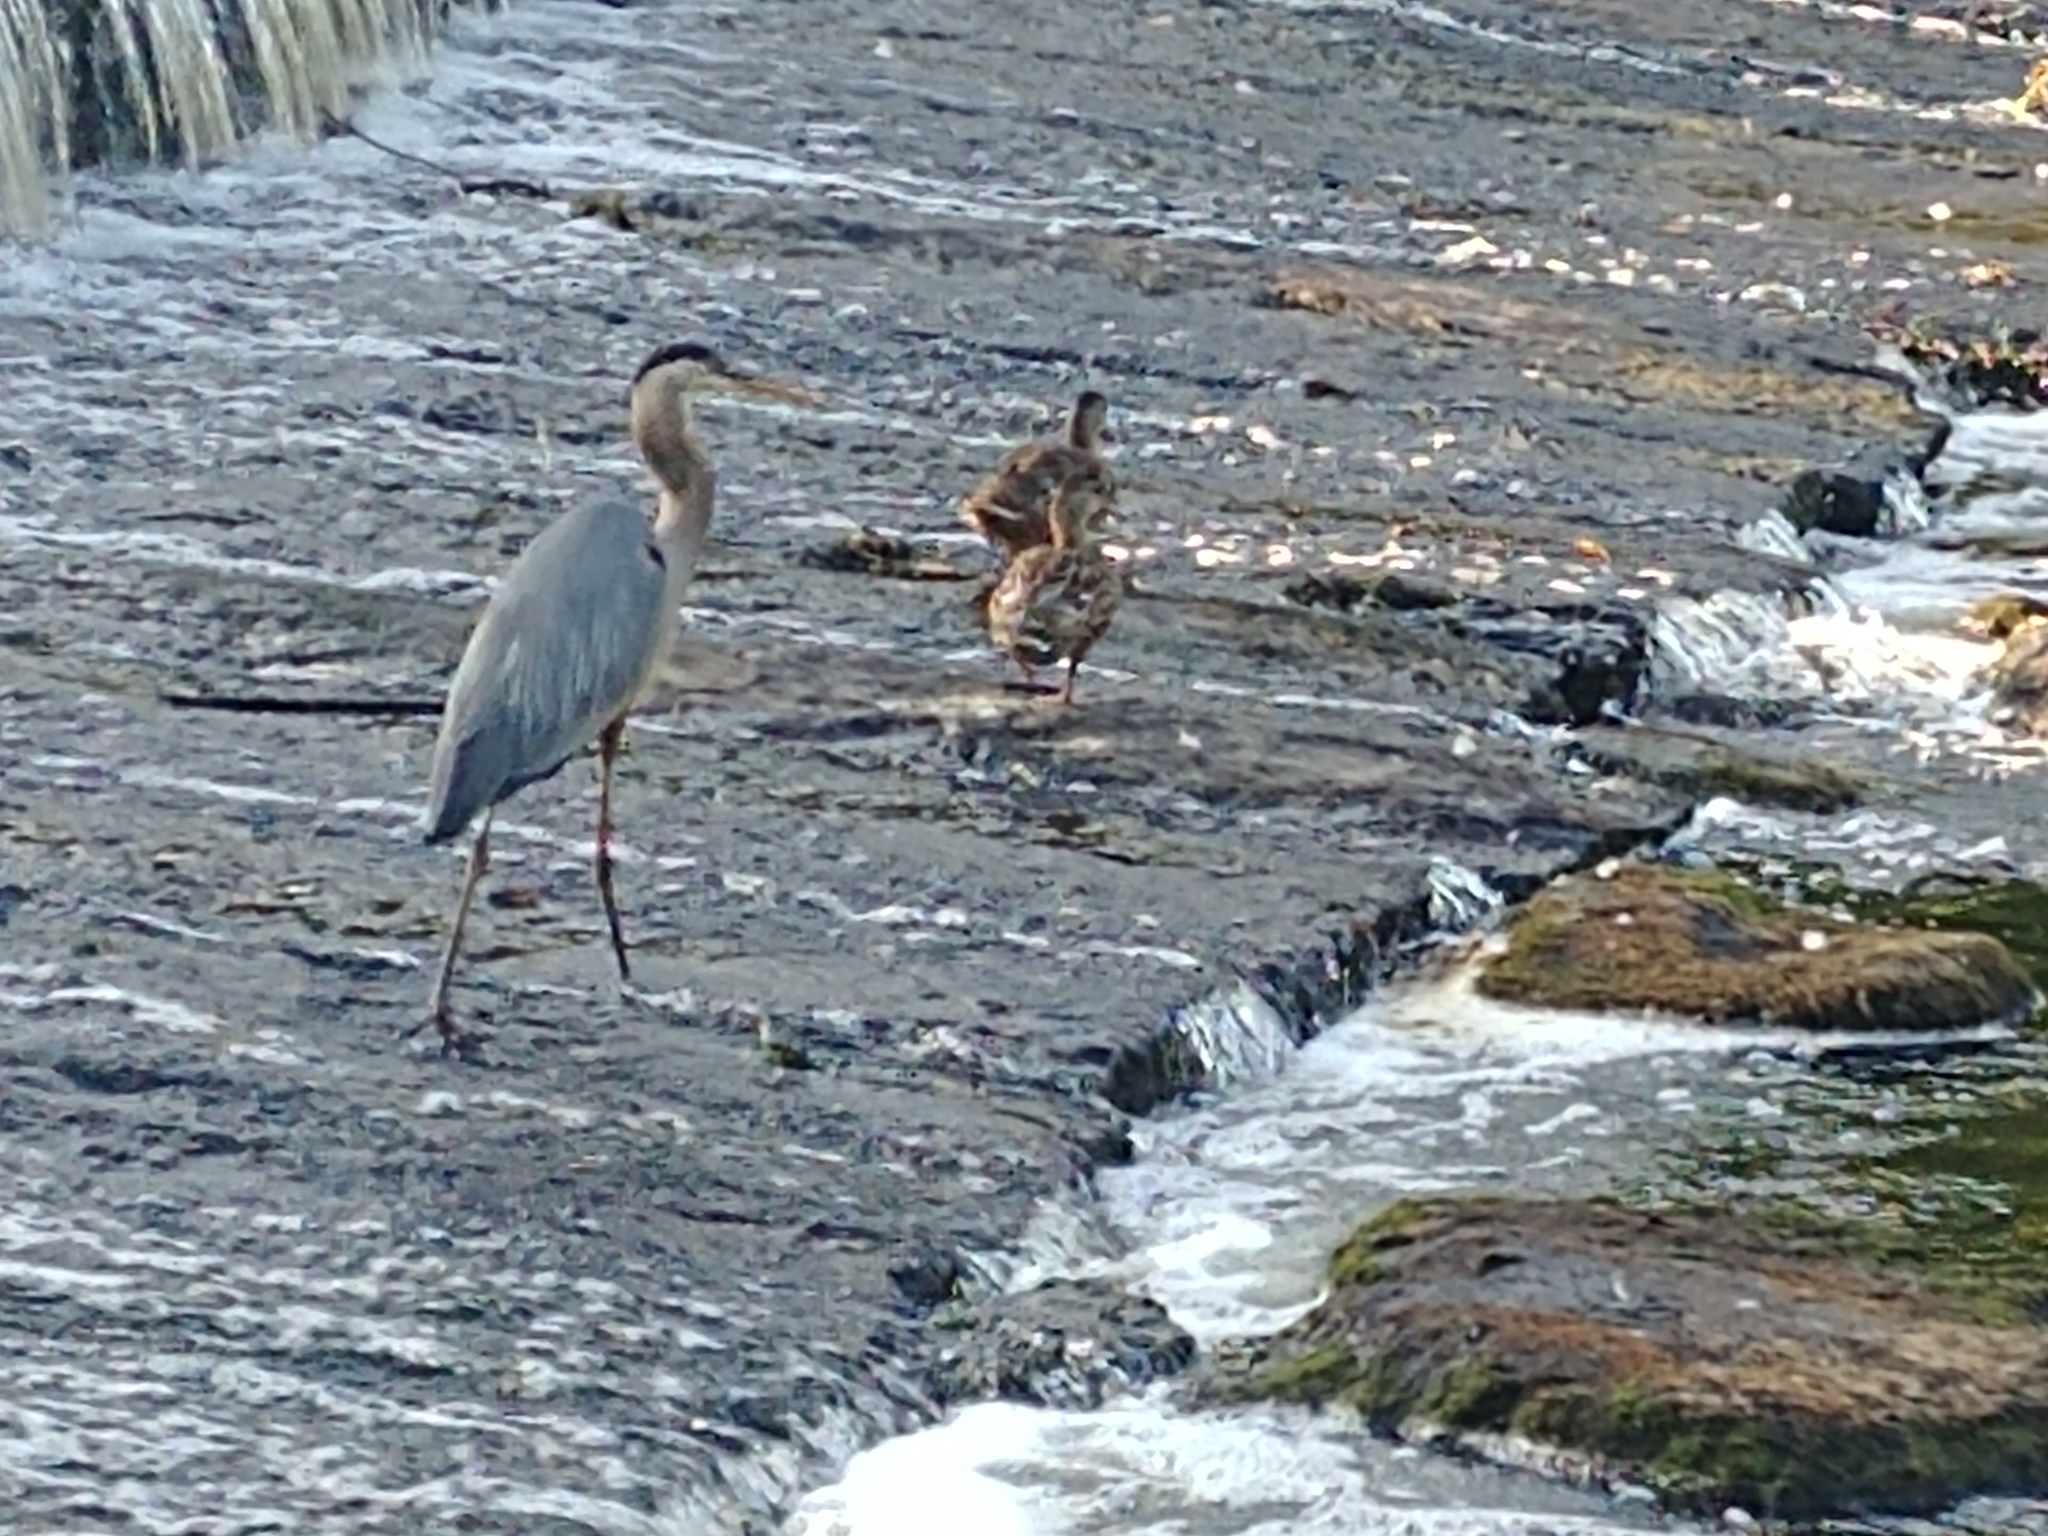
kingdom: Animalia
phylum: Chordata
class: Aves
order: Pelecaniformes
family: Ardeidae
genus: Ardea
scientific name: Ardea herodias
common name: Great blue heron
